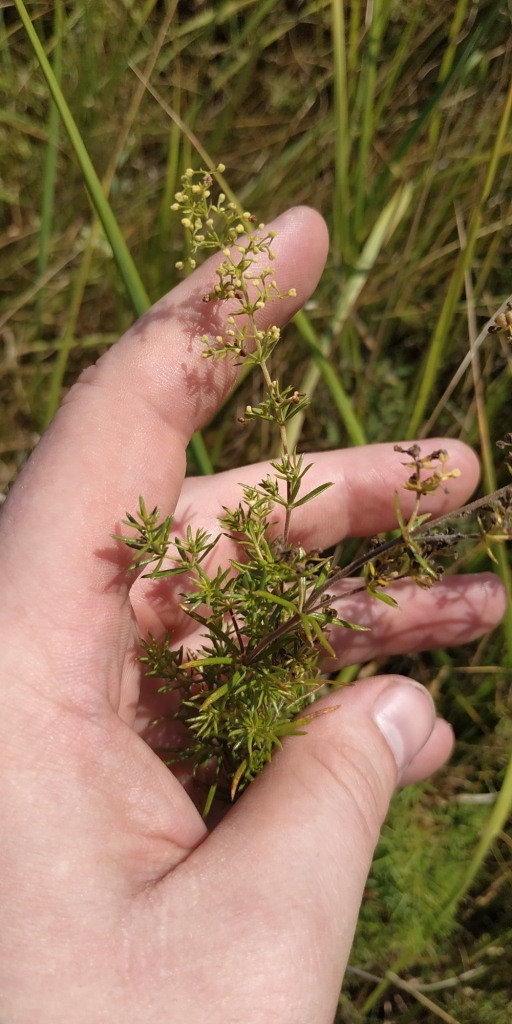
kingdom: Plantae
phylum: Tracheophyta
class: Magnoliopsida
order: Gentianales
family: Rubiaceae
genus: Galium
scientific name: Galium verum
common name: Lady's bedstraw
